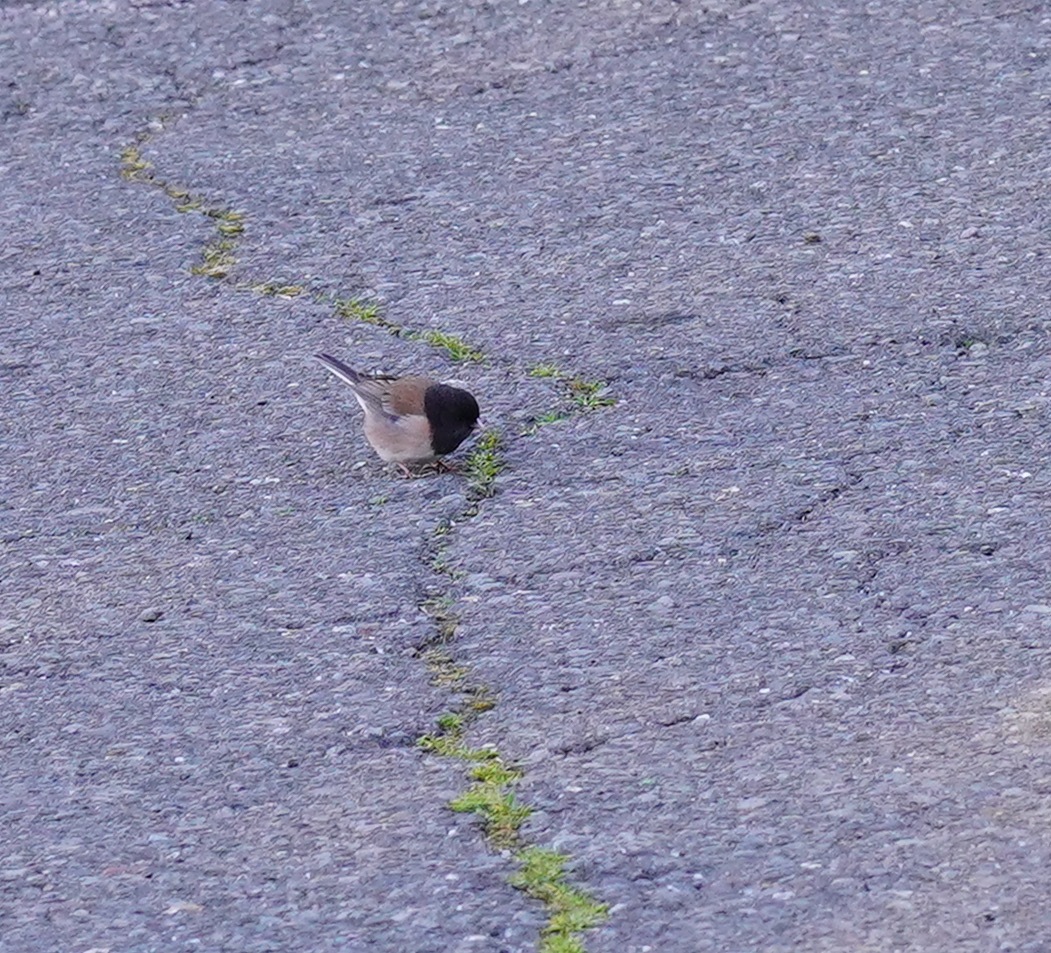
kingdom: Animalia
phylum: Chordata
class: Aves
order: Passeriformes
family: Passerellidae
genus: Junco
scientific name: Junco hyemalis
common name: Dark-eyed junco
